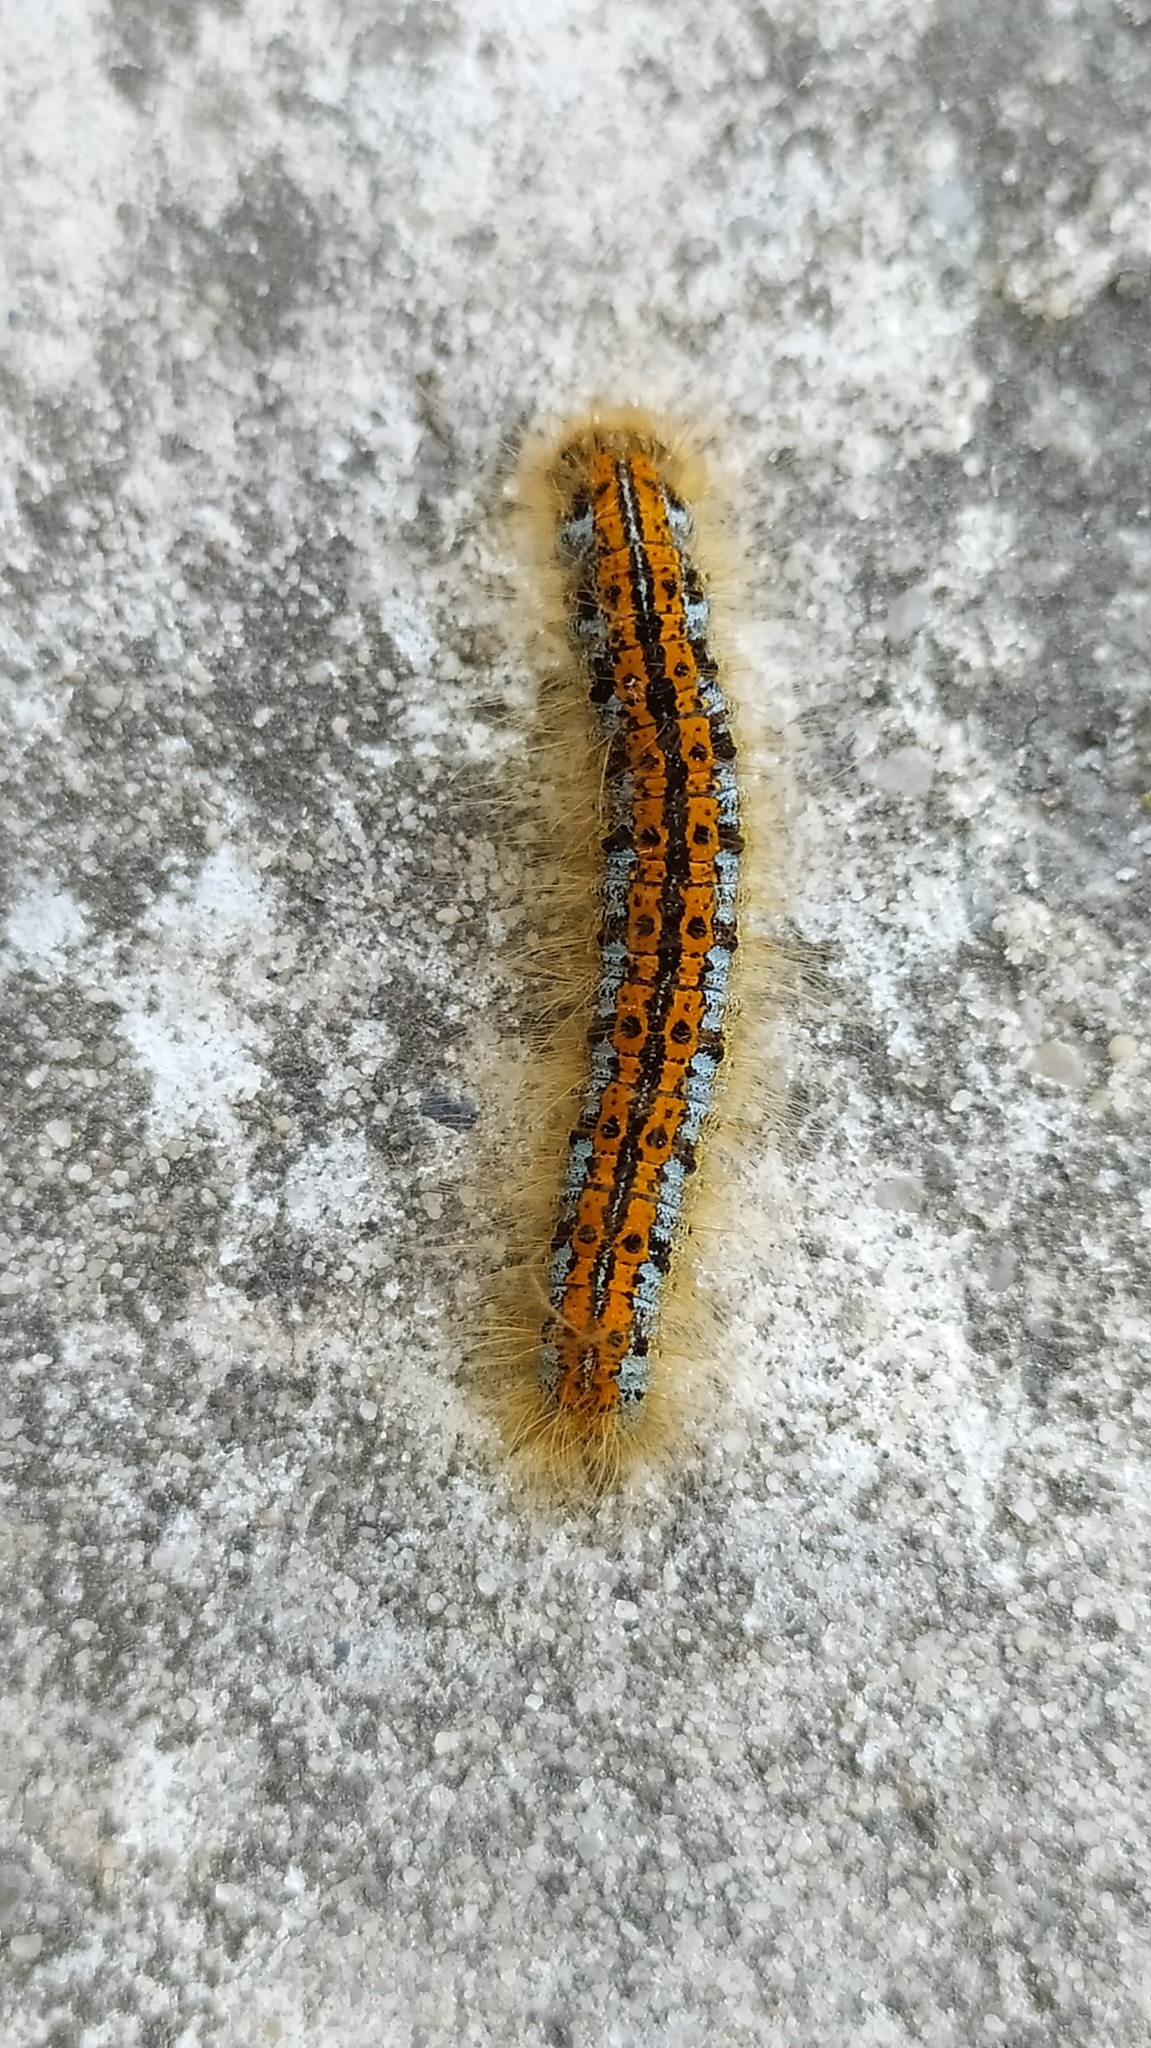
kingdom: Animalia
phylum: Arthropoda
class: Insecta
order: Lepidoptera
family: Lasiocampidae
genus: Malacosoma
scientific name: Malacosoma castrense
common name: Ground lackey
